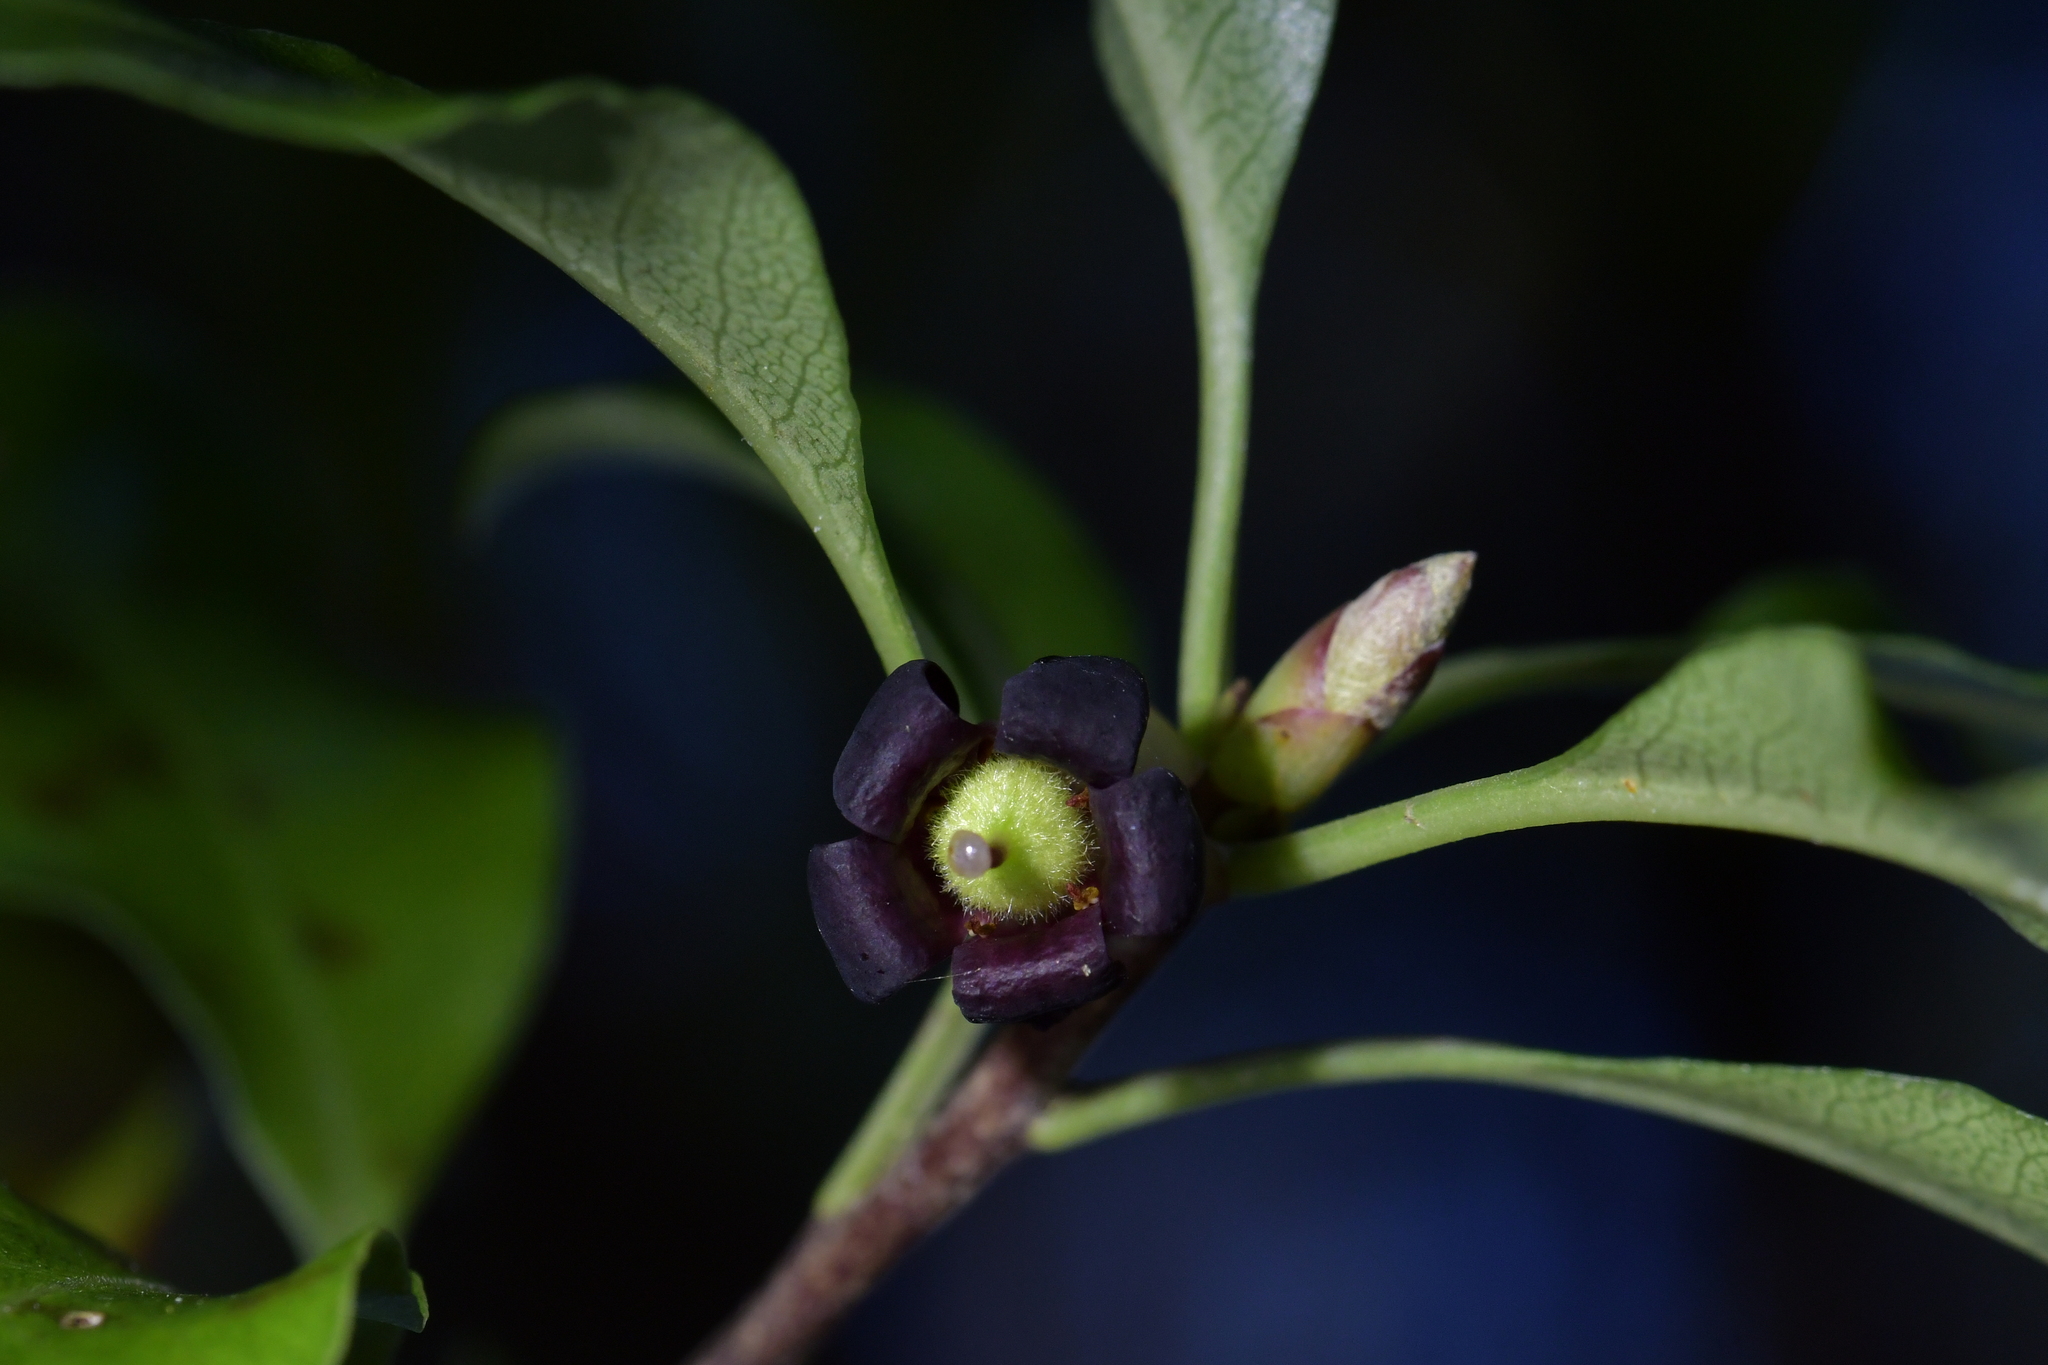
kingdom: Plantae
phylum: Tracheophyta
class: Magnoliopsida
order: Apiales
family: Pittosporaceae
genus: Pittosporum
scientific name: Pittosporum tenuifolium
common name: Kohuhu
